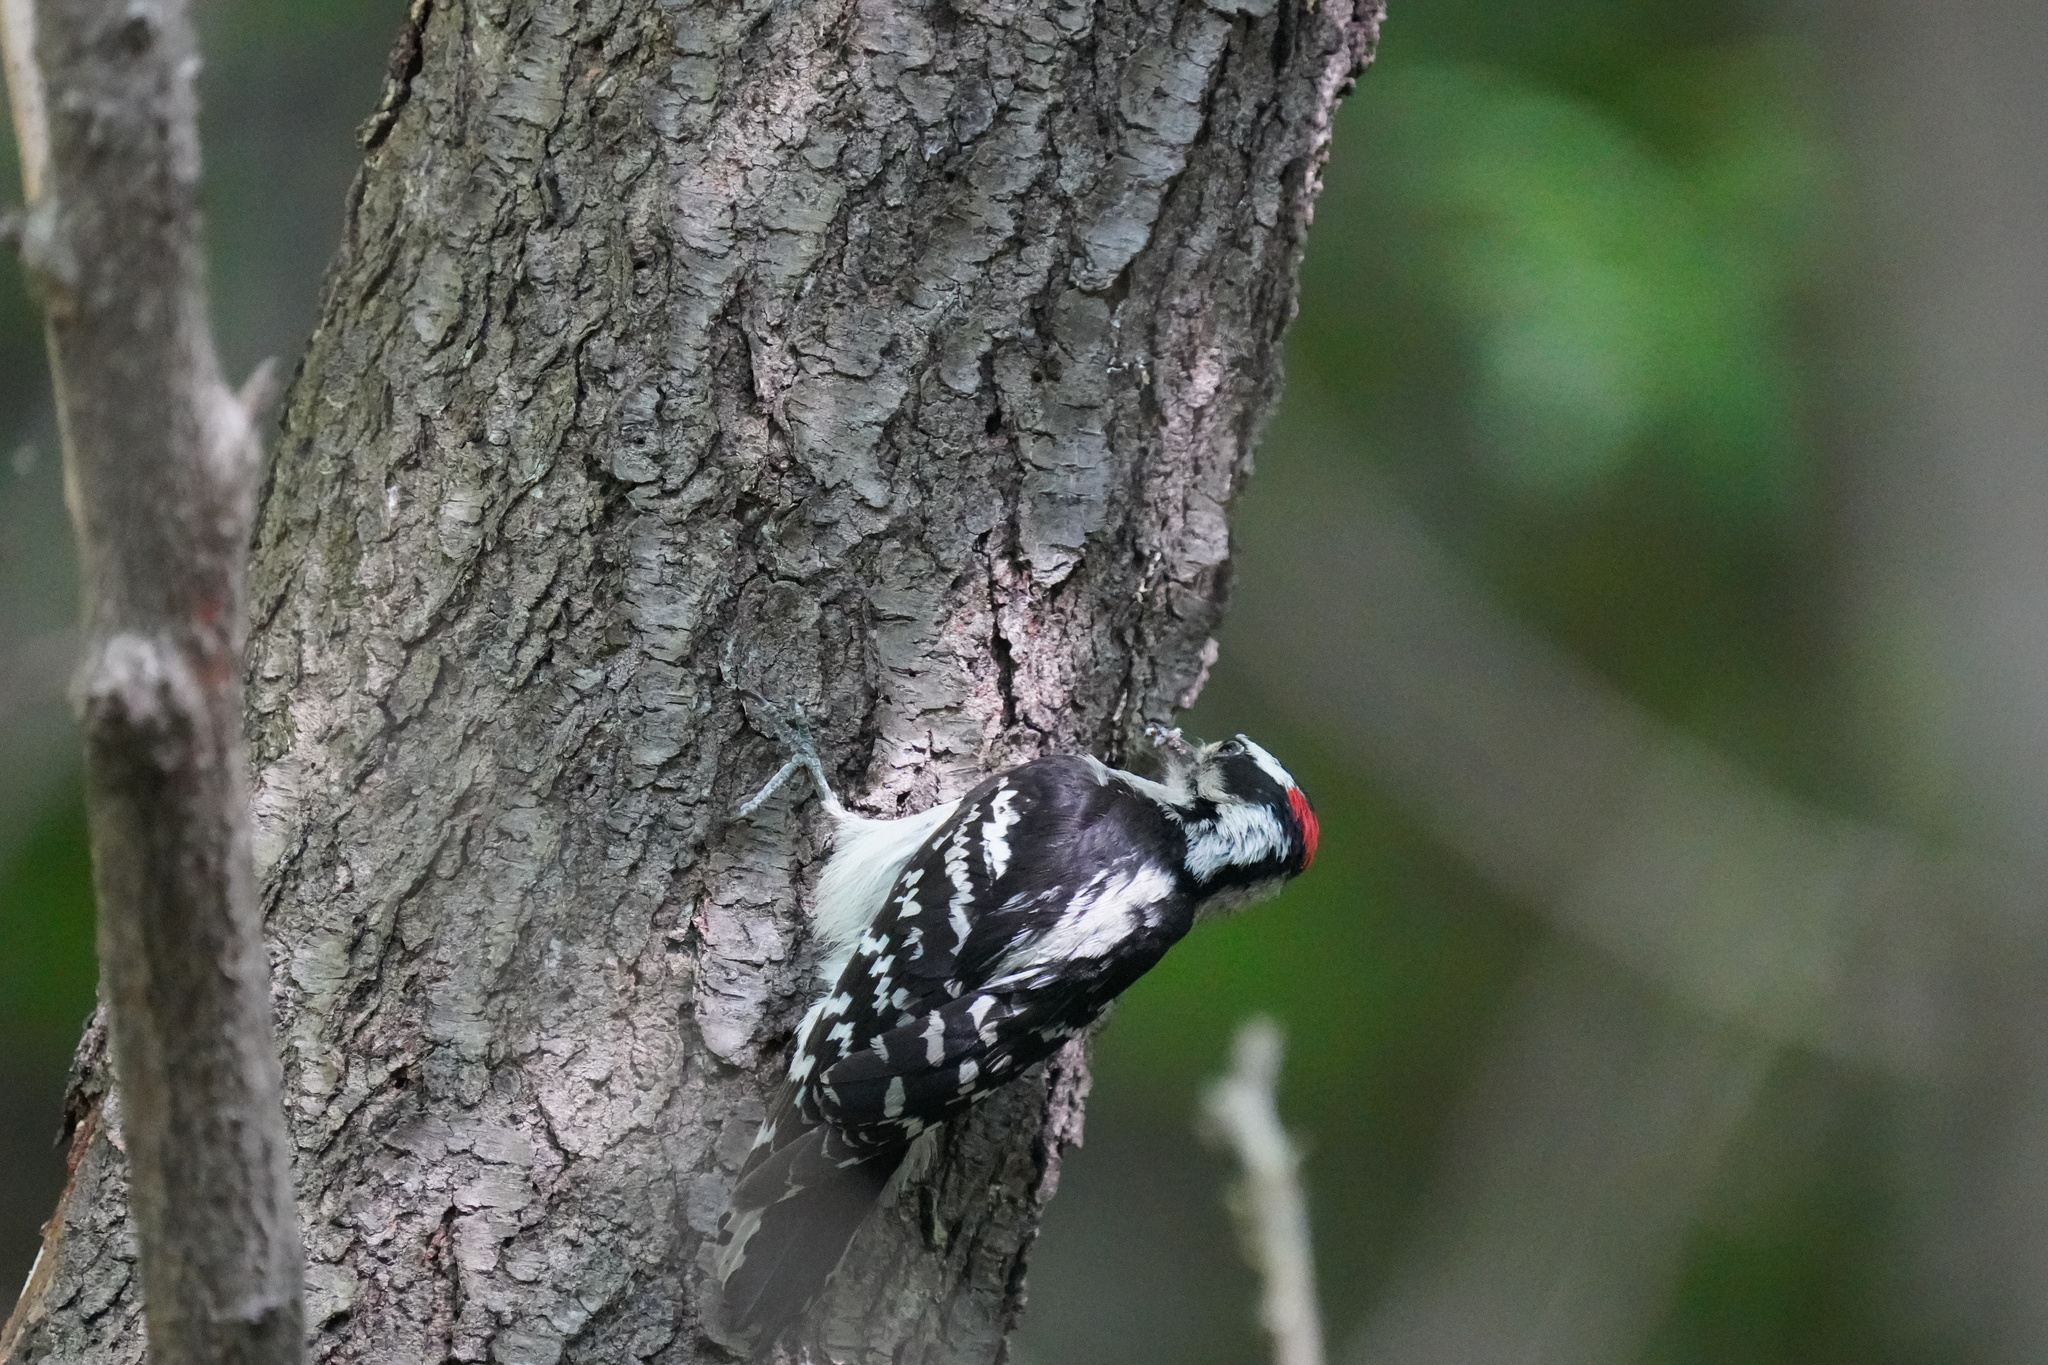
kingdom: Animalia
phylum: Chordata
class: Aves
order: Piciformes
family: Picidae
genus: Dryobates
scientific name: Dryobates pubescens
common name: Downy woodpecker
